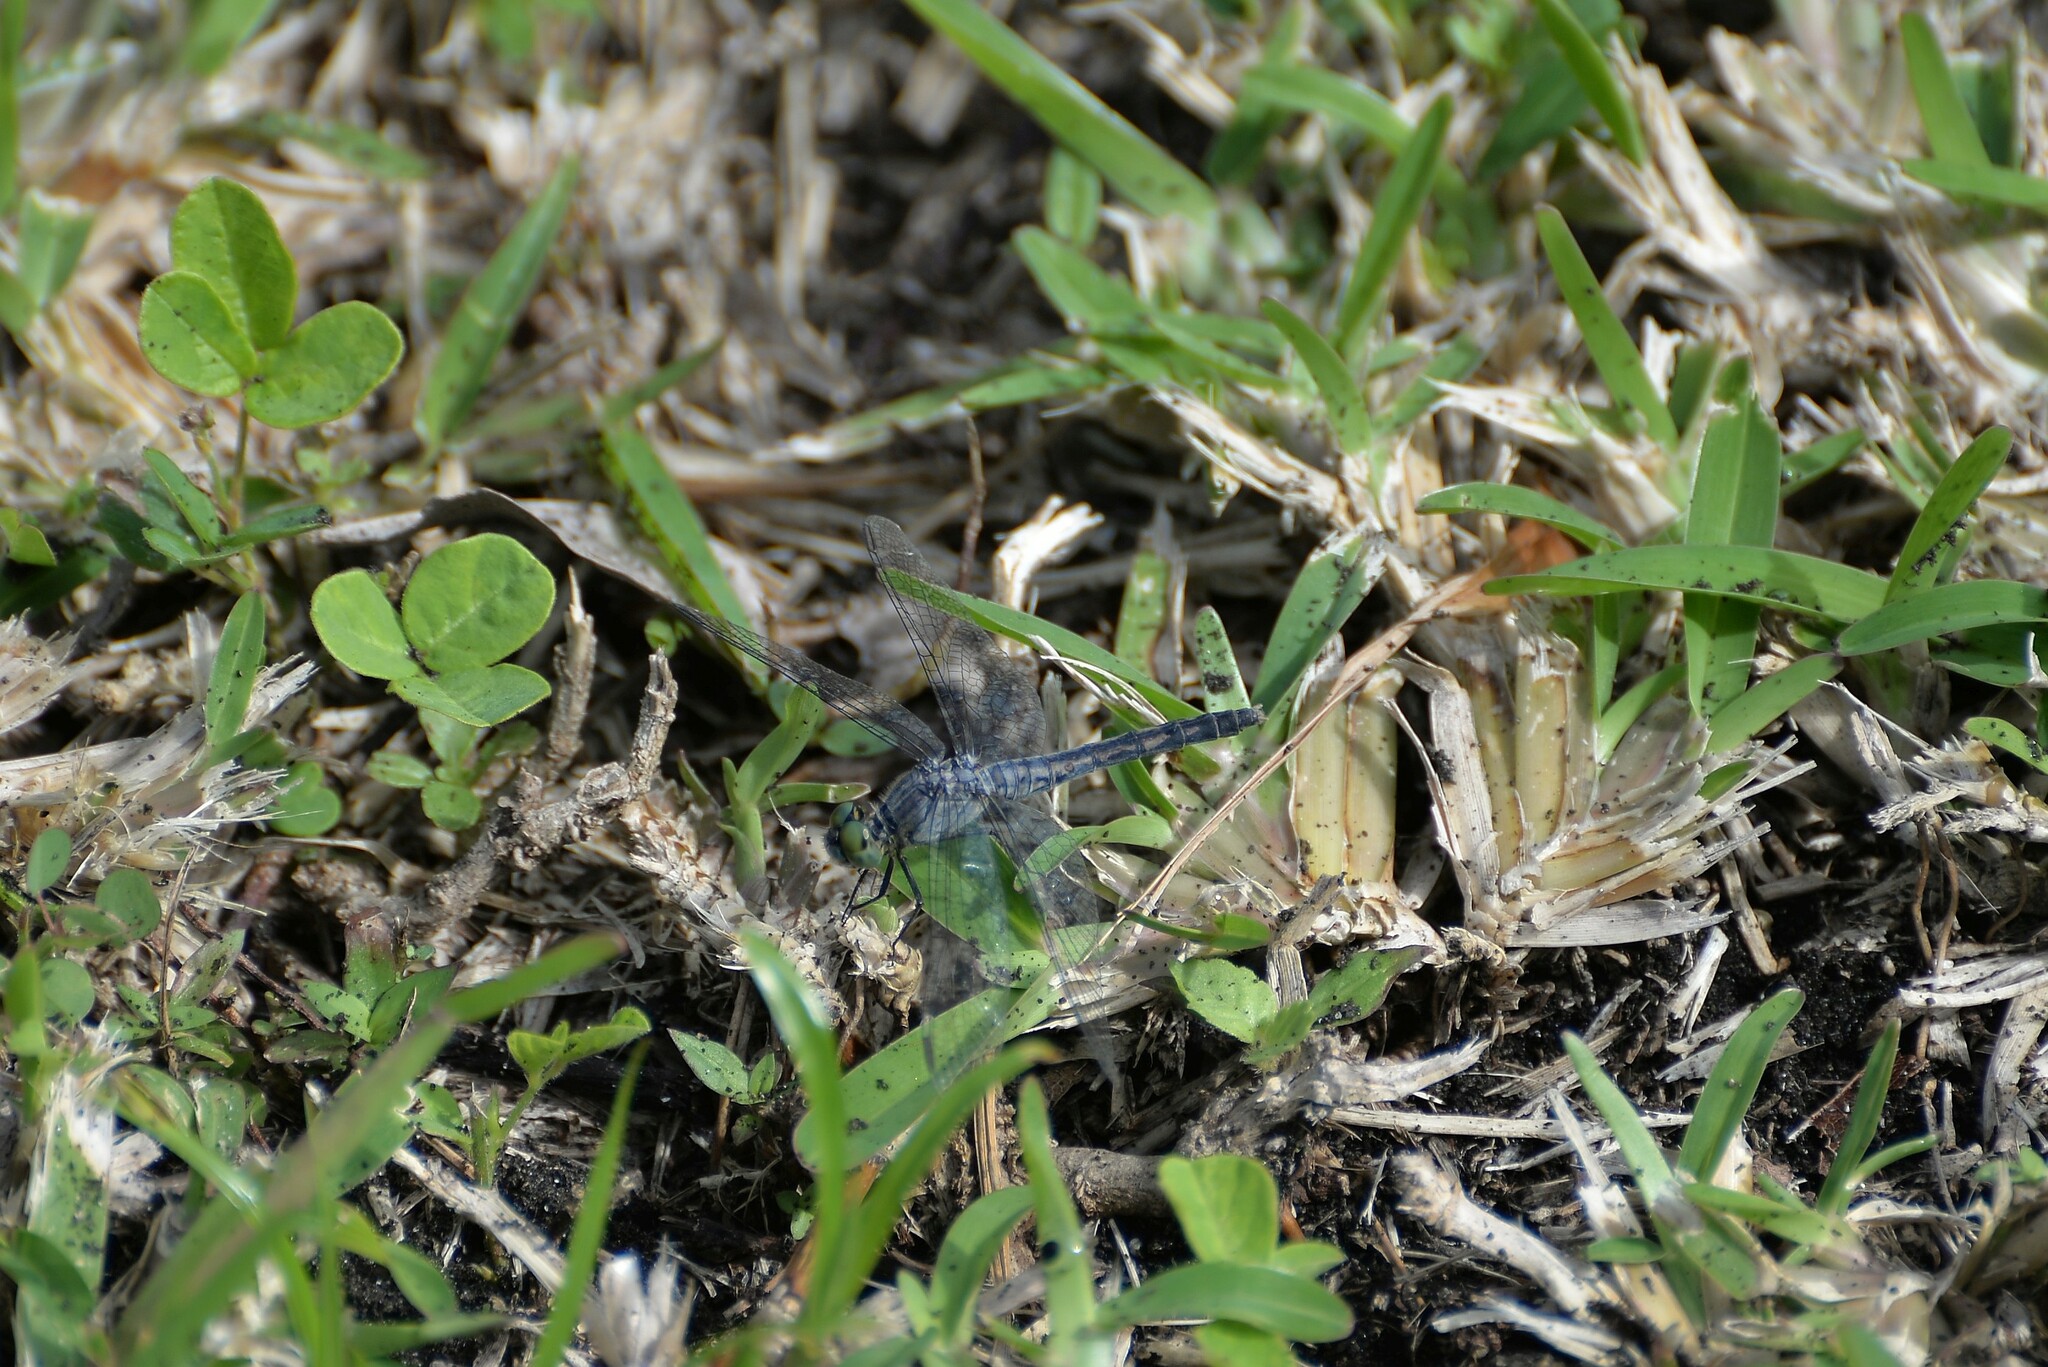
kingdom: Animalia
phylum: Arthropoda
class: Insecta
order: Odonata
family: Libellulidae
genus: Diplacodes
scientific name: Diplacodes trivialis
